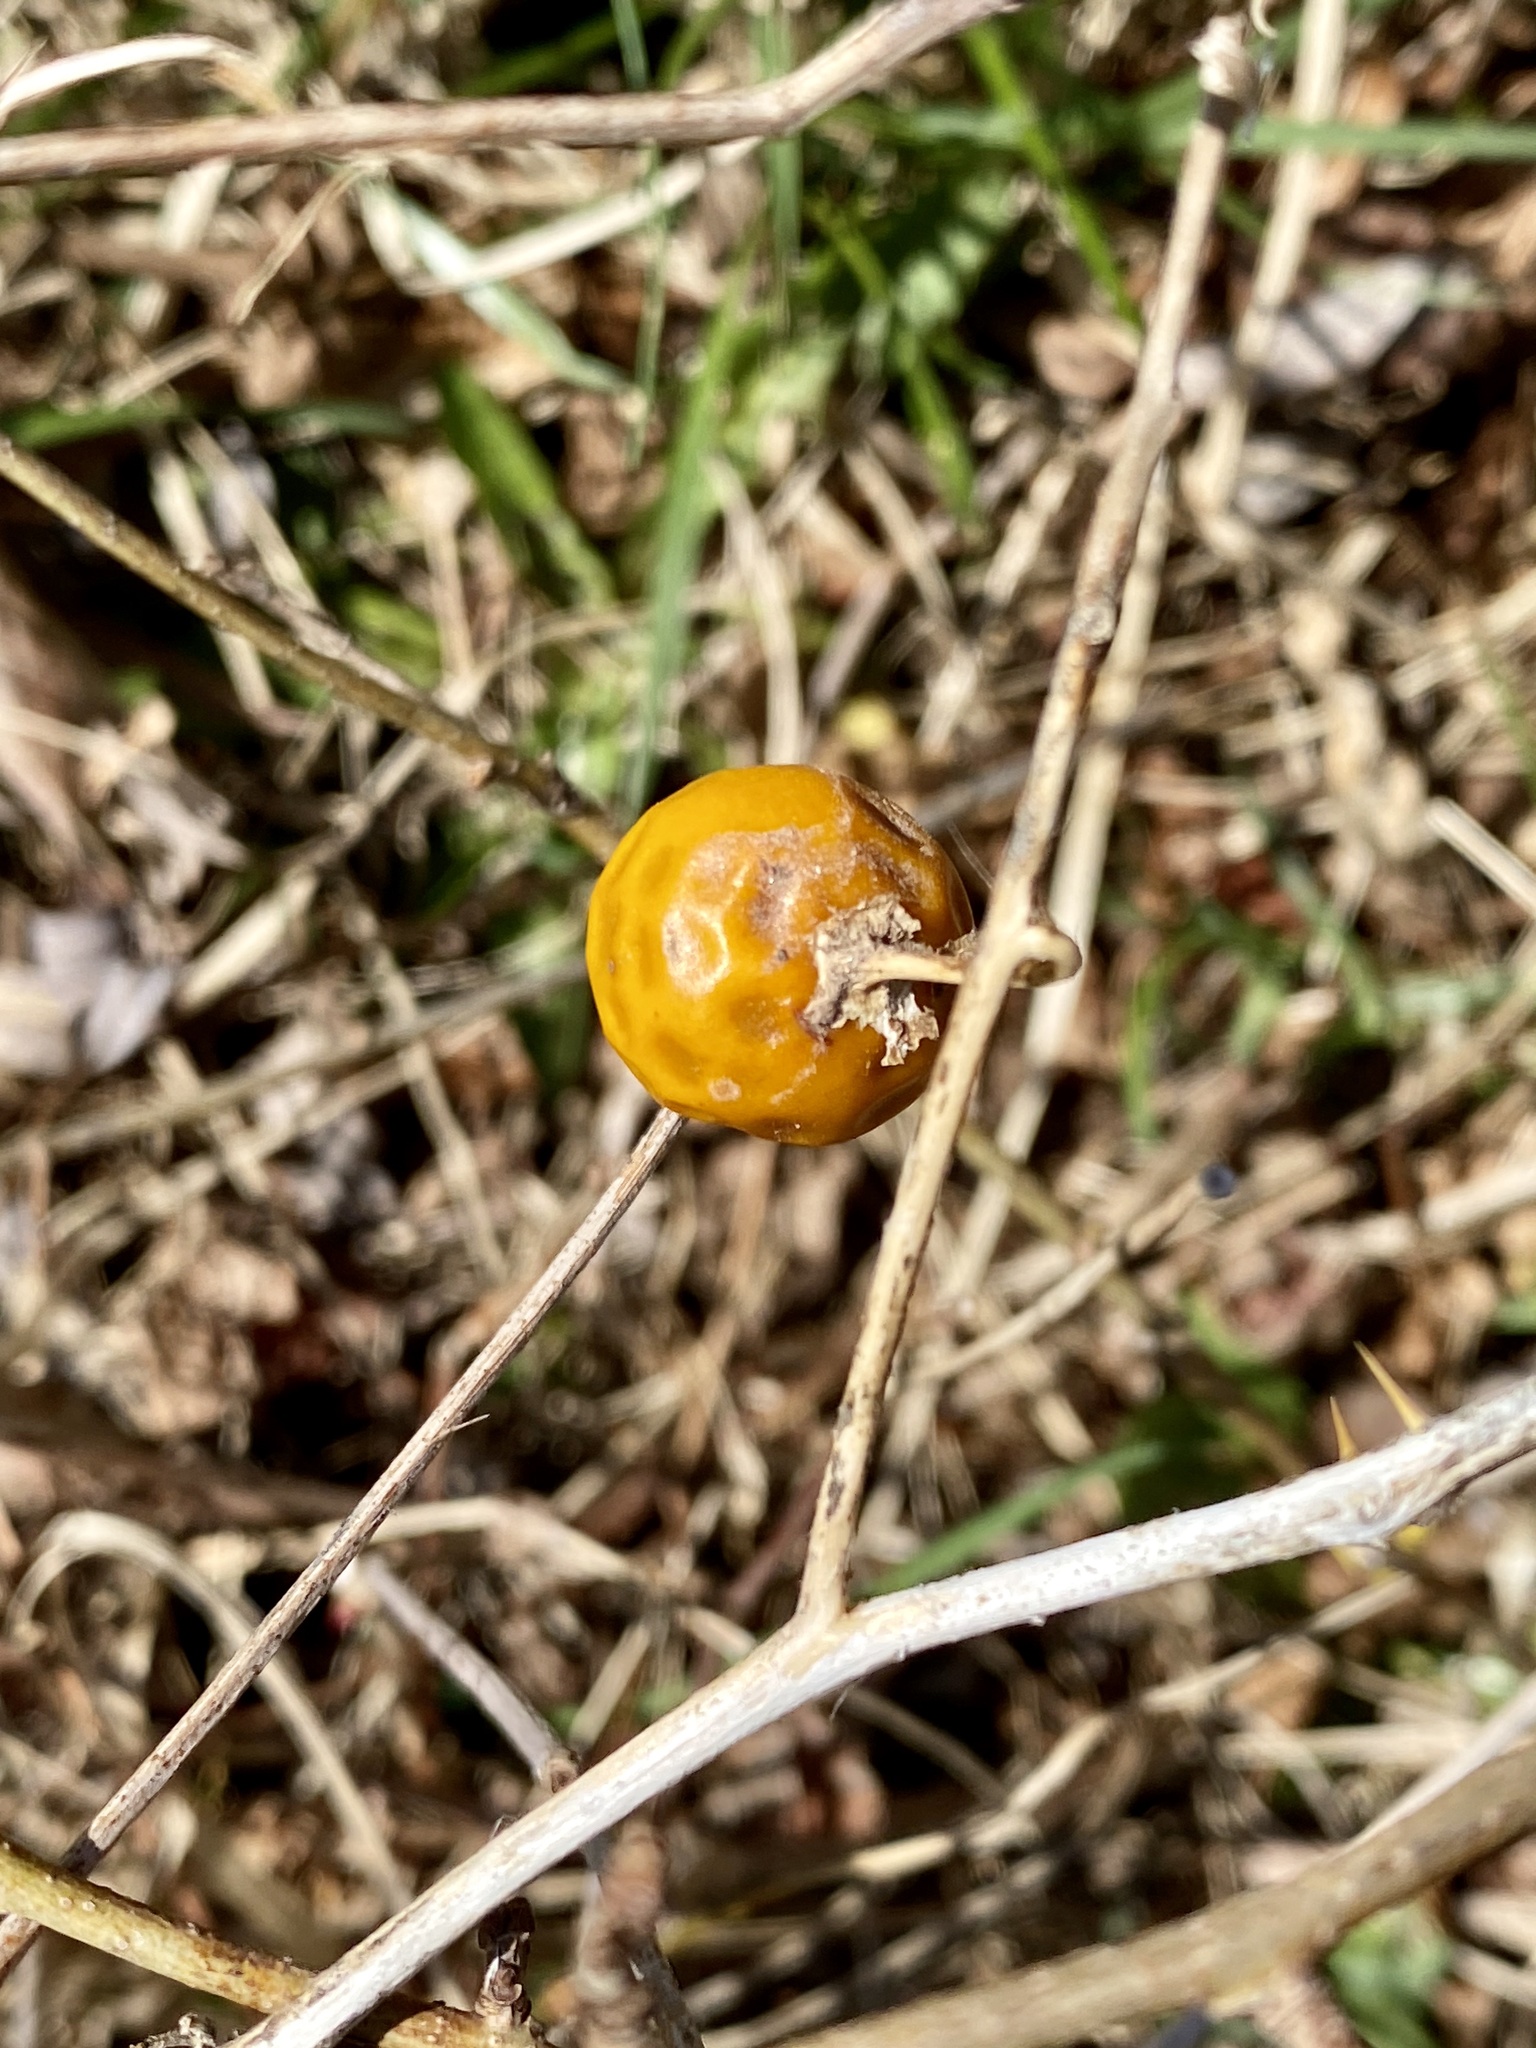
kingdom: Plantae
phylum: Tracheophyta
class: Magnoliopsida
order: Solanales
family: Solanaceae
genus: Solanum
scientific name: Solanum carolinense
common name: Horse-nettle
